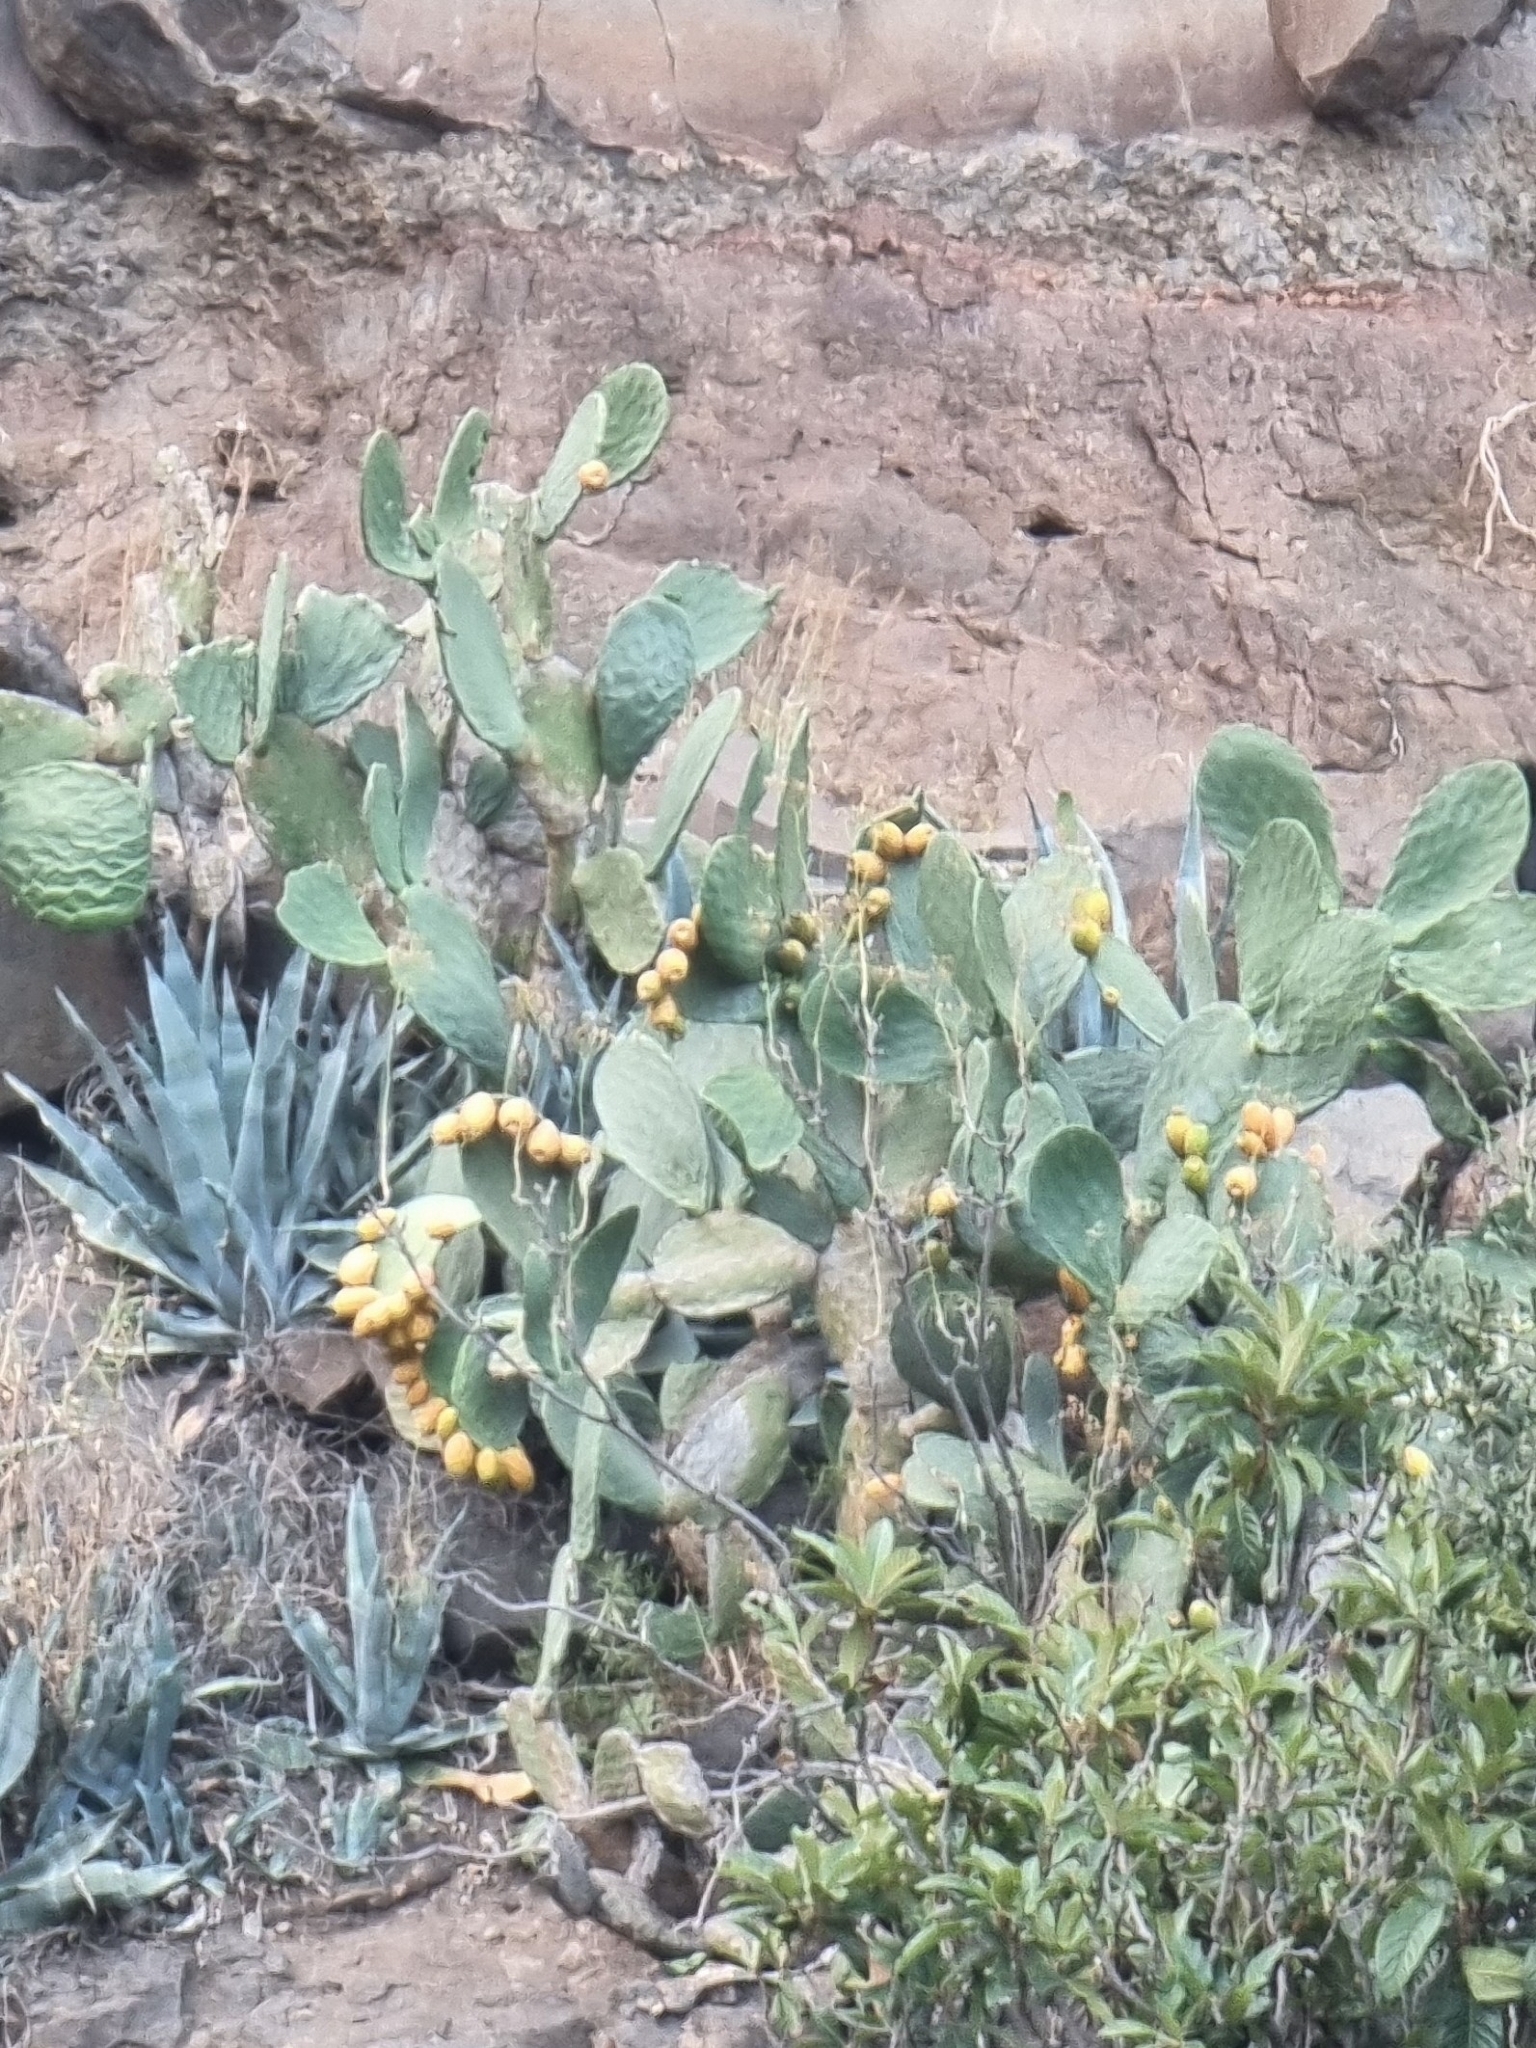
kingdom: Plantae
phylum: Tracheophyta
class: Magnoliopsida
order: Caryophyllales
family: Cactaceae
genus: Opuntia
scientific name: Opuntia ficus-indica
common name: Barbary fig
